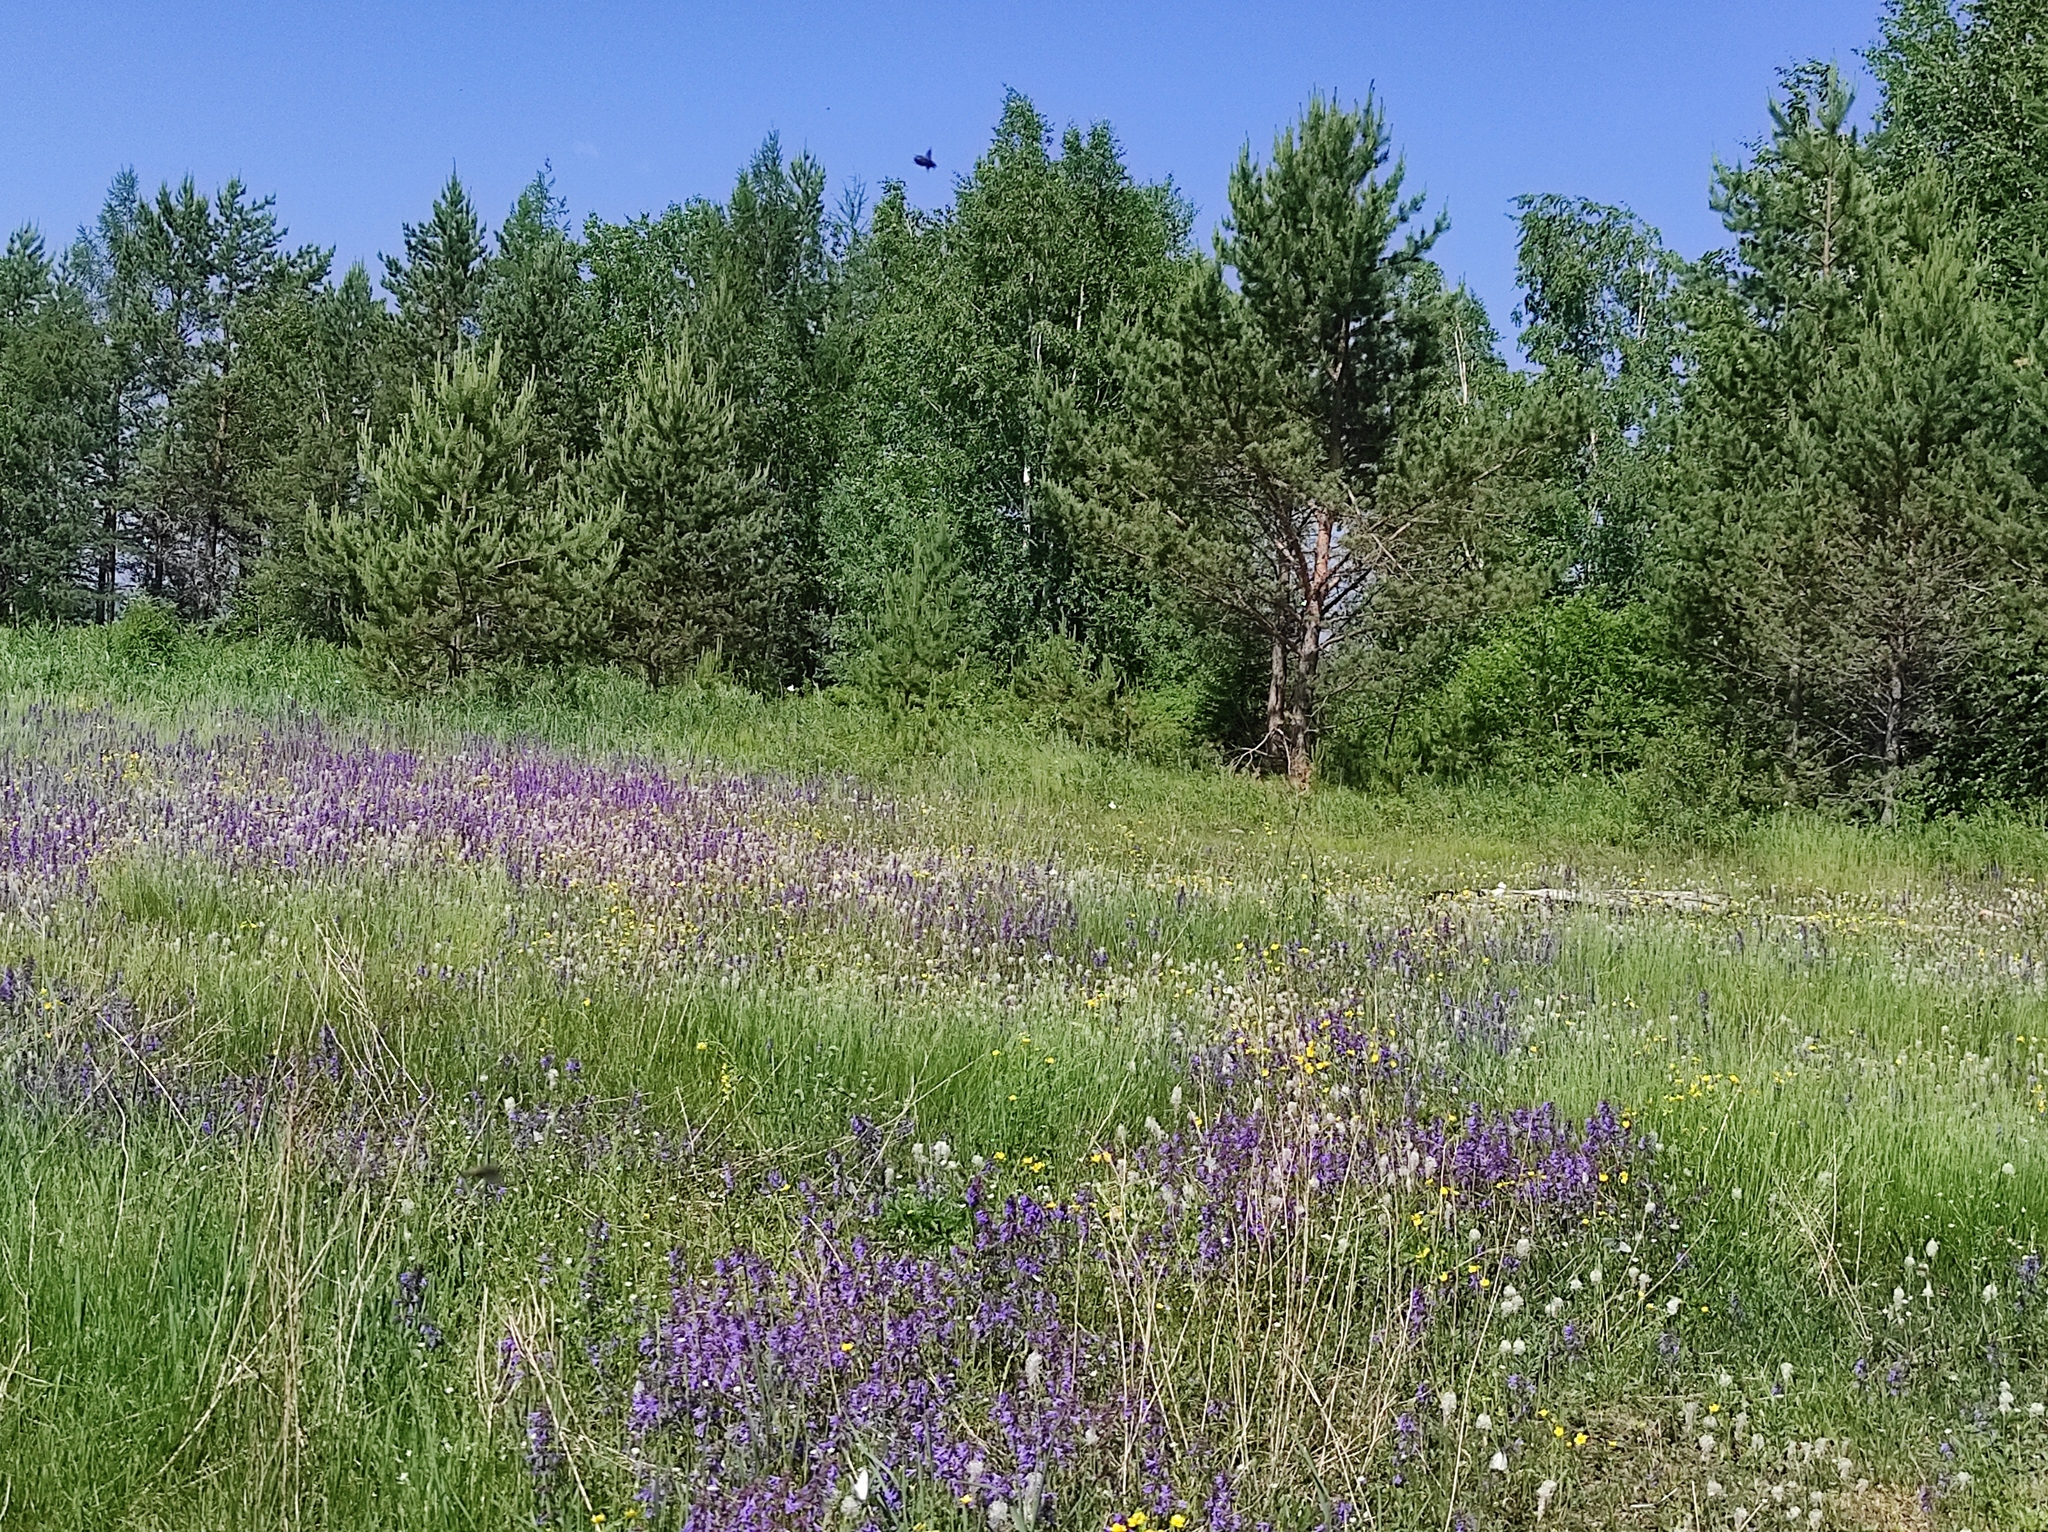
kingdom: Plantae
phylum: Tracheophyta
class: Pinopsida
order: Pinales
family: Pinaceae
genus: Pinus
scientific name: Pinus sylvestris
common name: Scots pine
